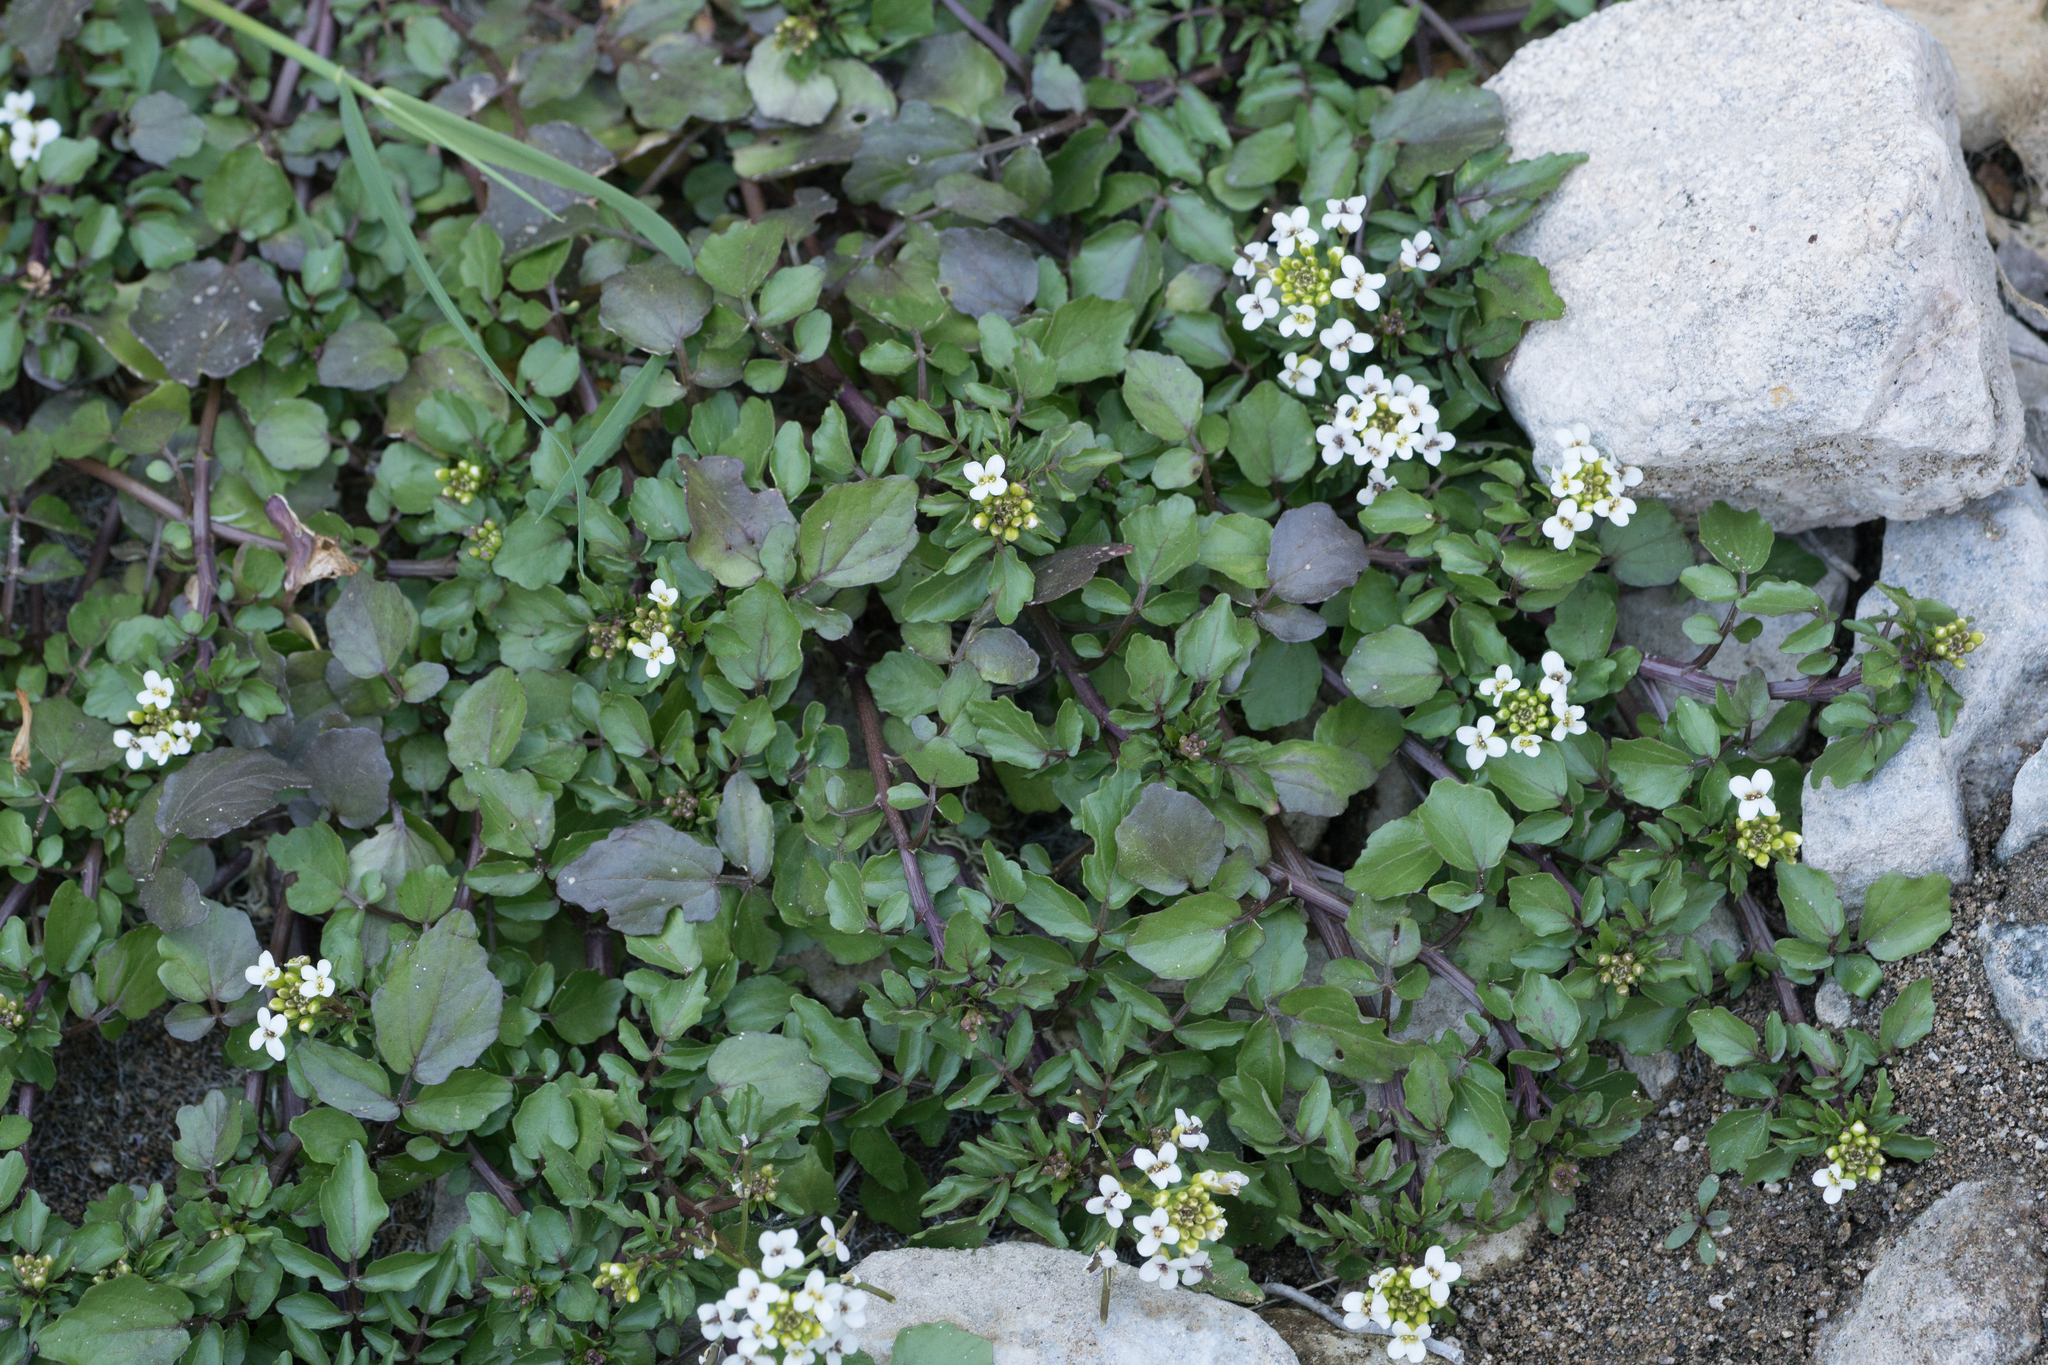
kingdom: Plantae
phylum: Tracheophyta
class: Magnoliopsida
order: Brassicales
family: Brassicaceae
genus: Nasturtium
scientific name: Nasturtium officinale
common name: Watercress
